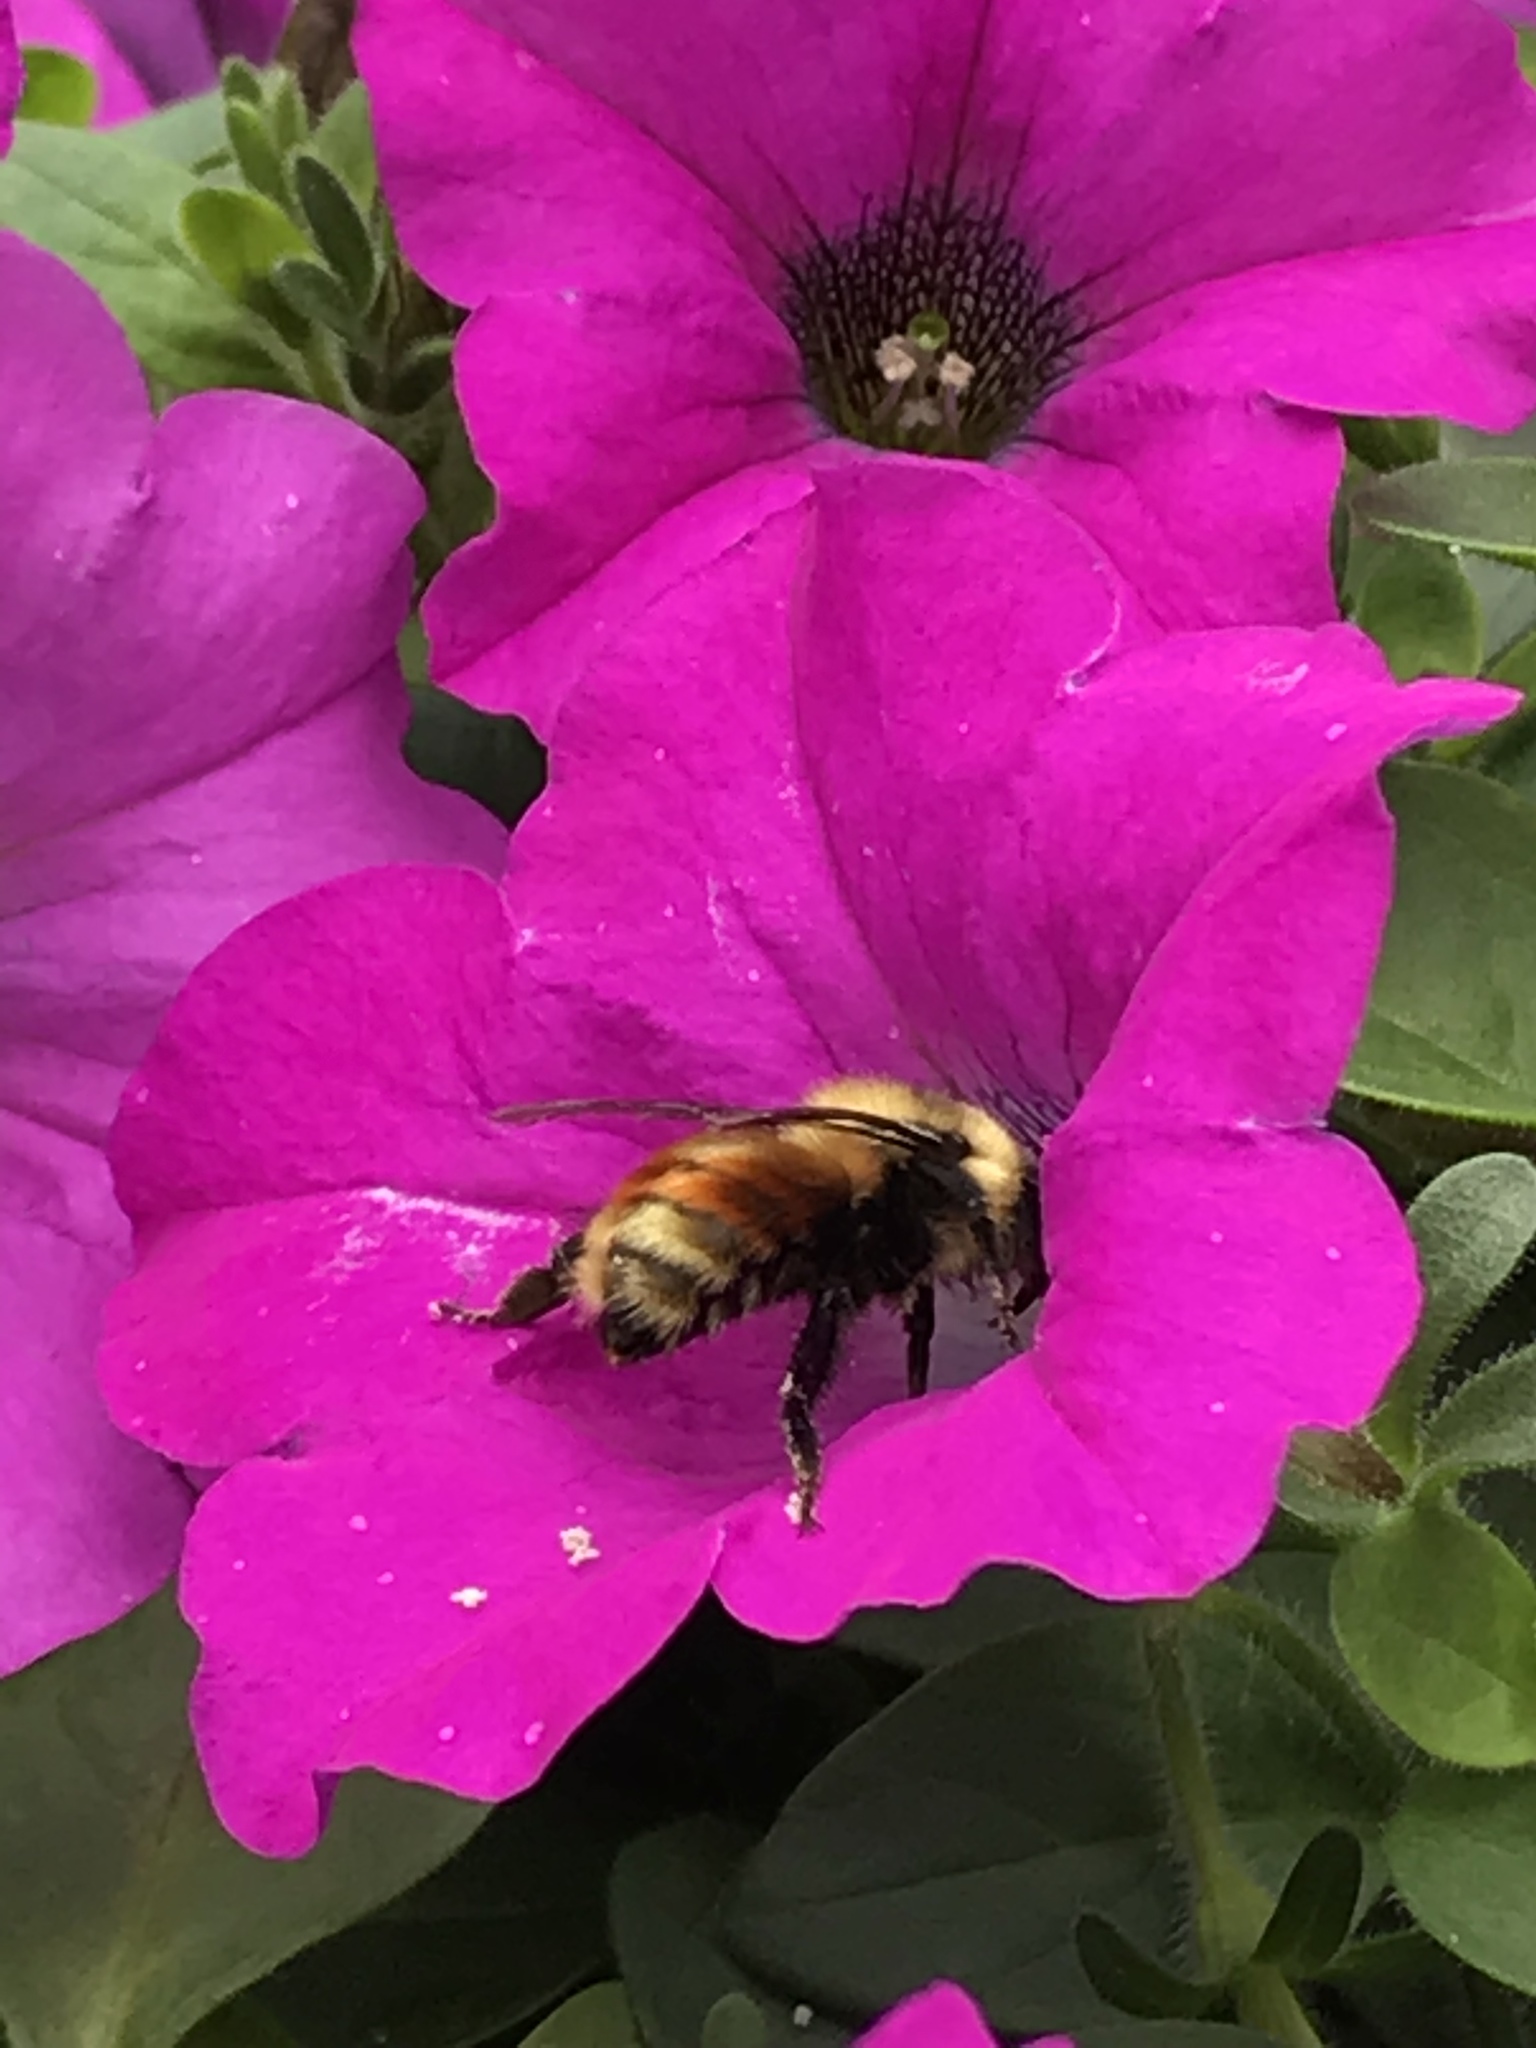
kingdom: Animalia
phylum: Arthropoda
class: Insecta
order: Hymenoptera
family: Apidae
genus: Bombus
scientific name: Bombus rufocinctus
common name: Red-belted bumble bee
